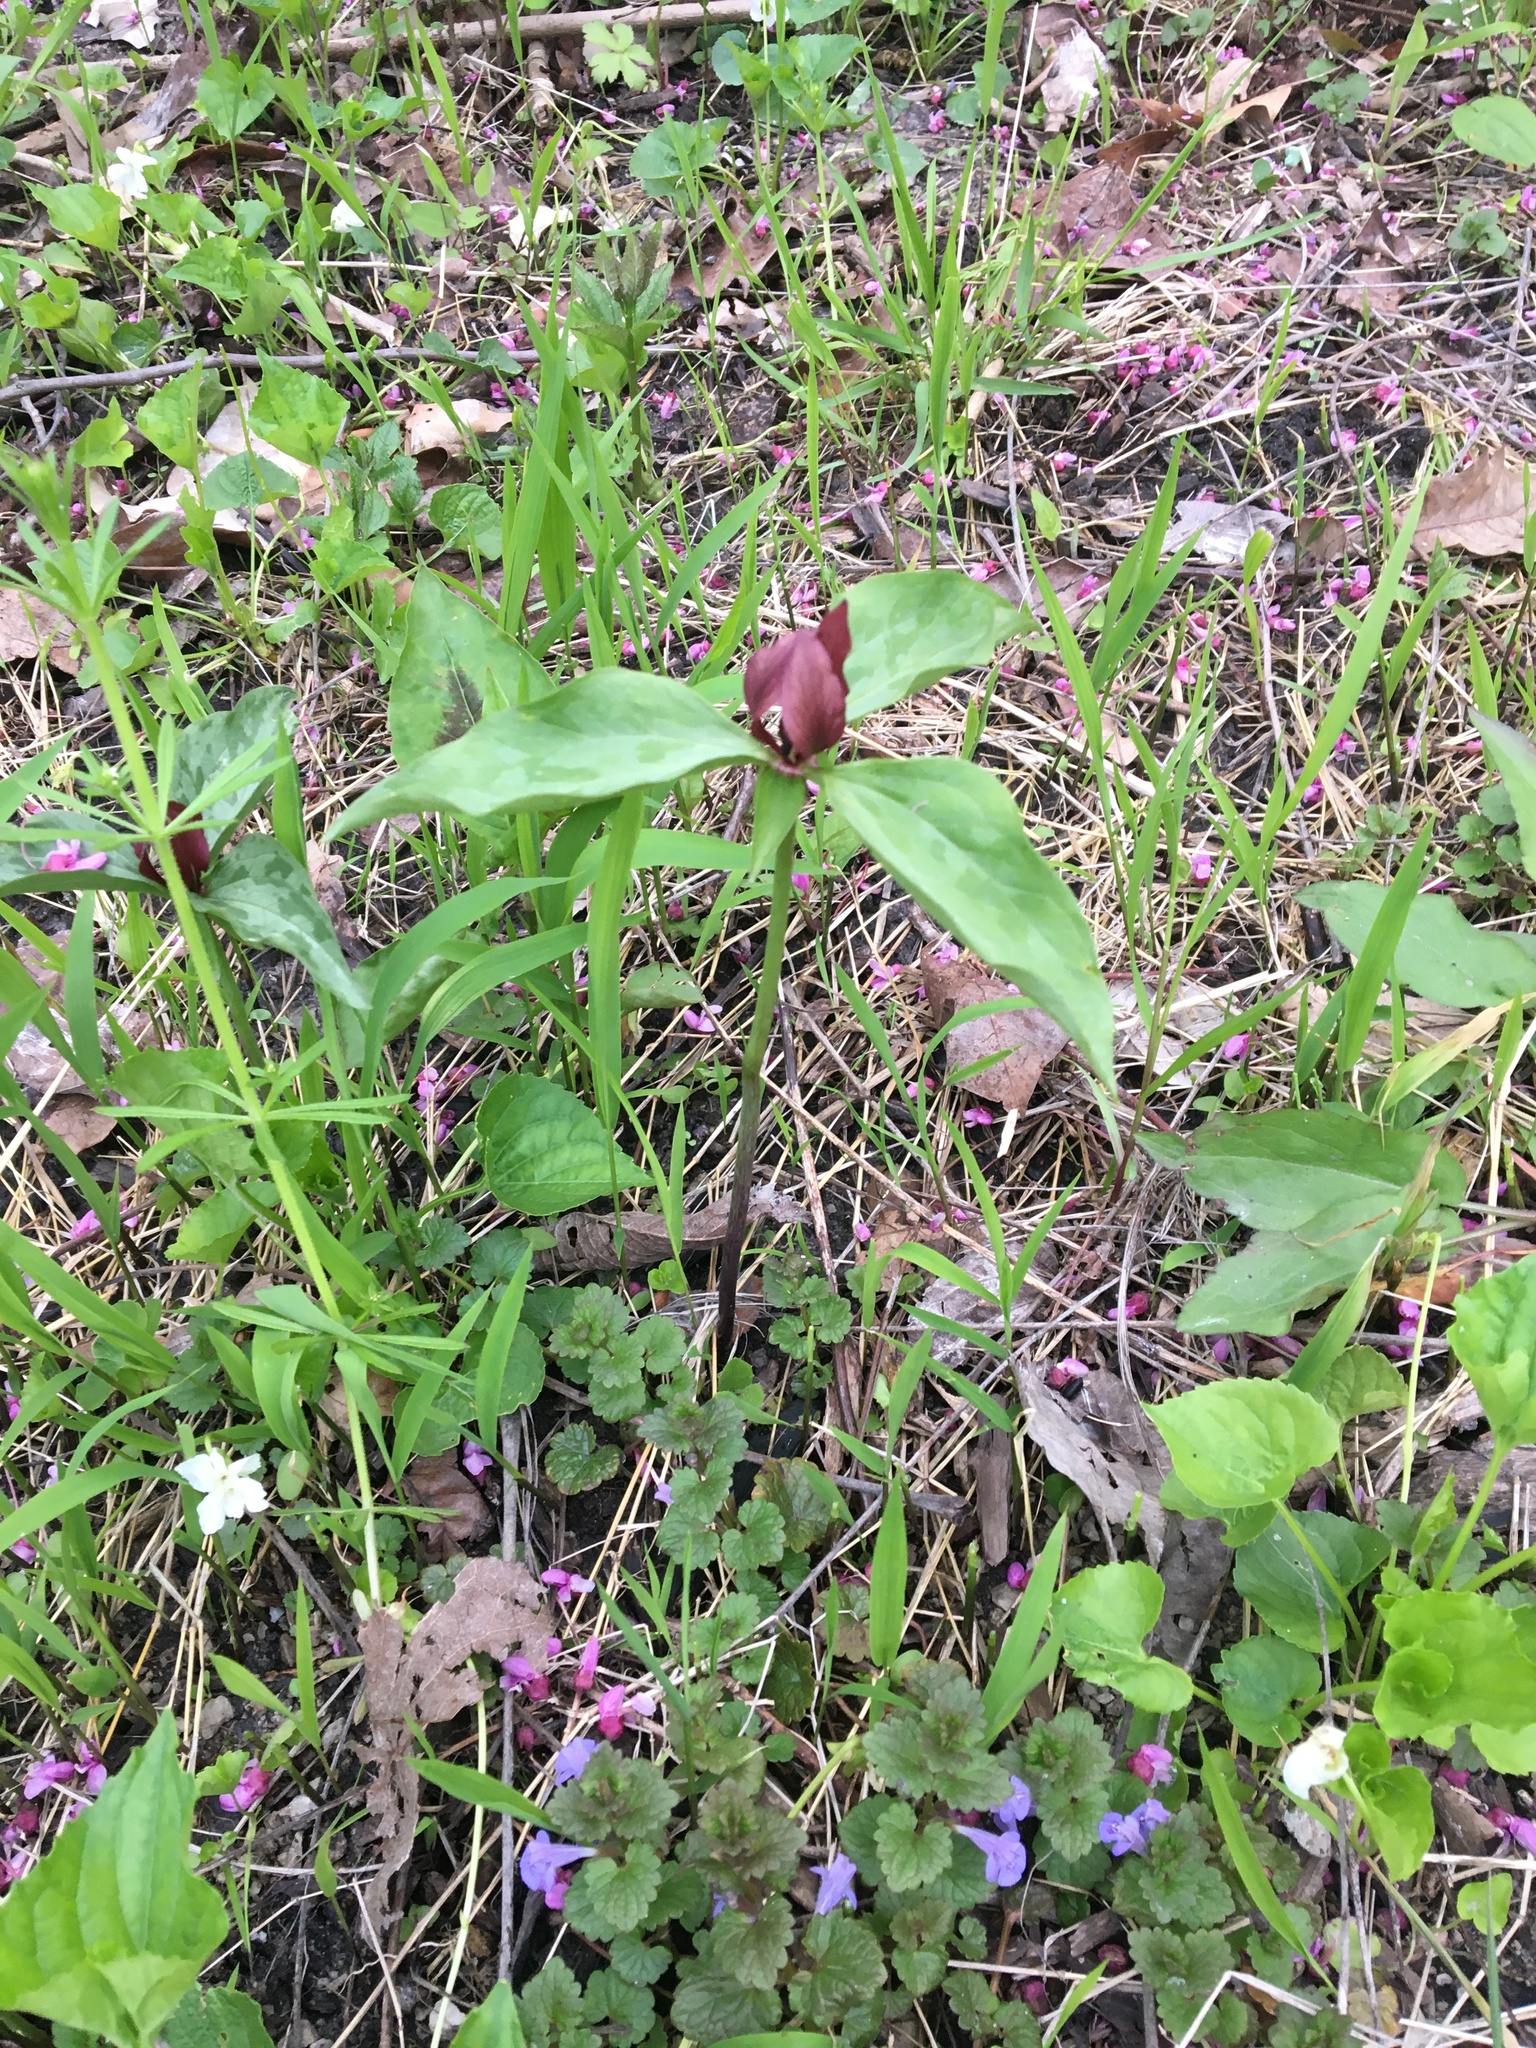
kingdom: Plantae
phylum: Tracheophyta
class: Liliopsida
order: Liliales
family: Melanthiaceae
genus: Trillium
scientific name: Trillium recurvatum
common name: Bloody butcher
